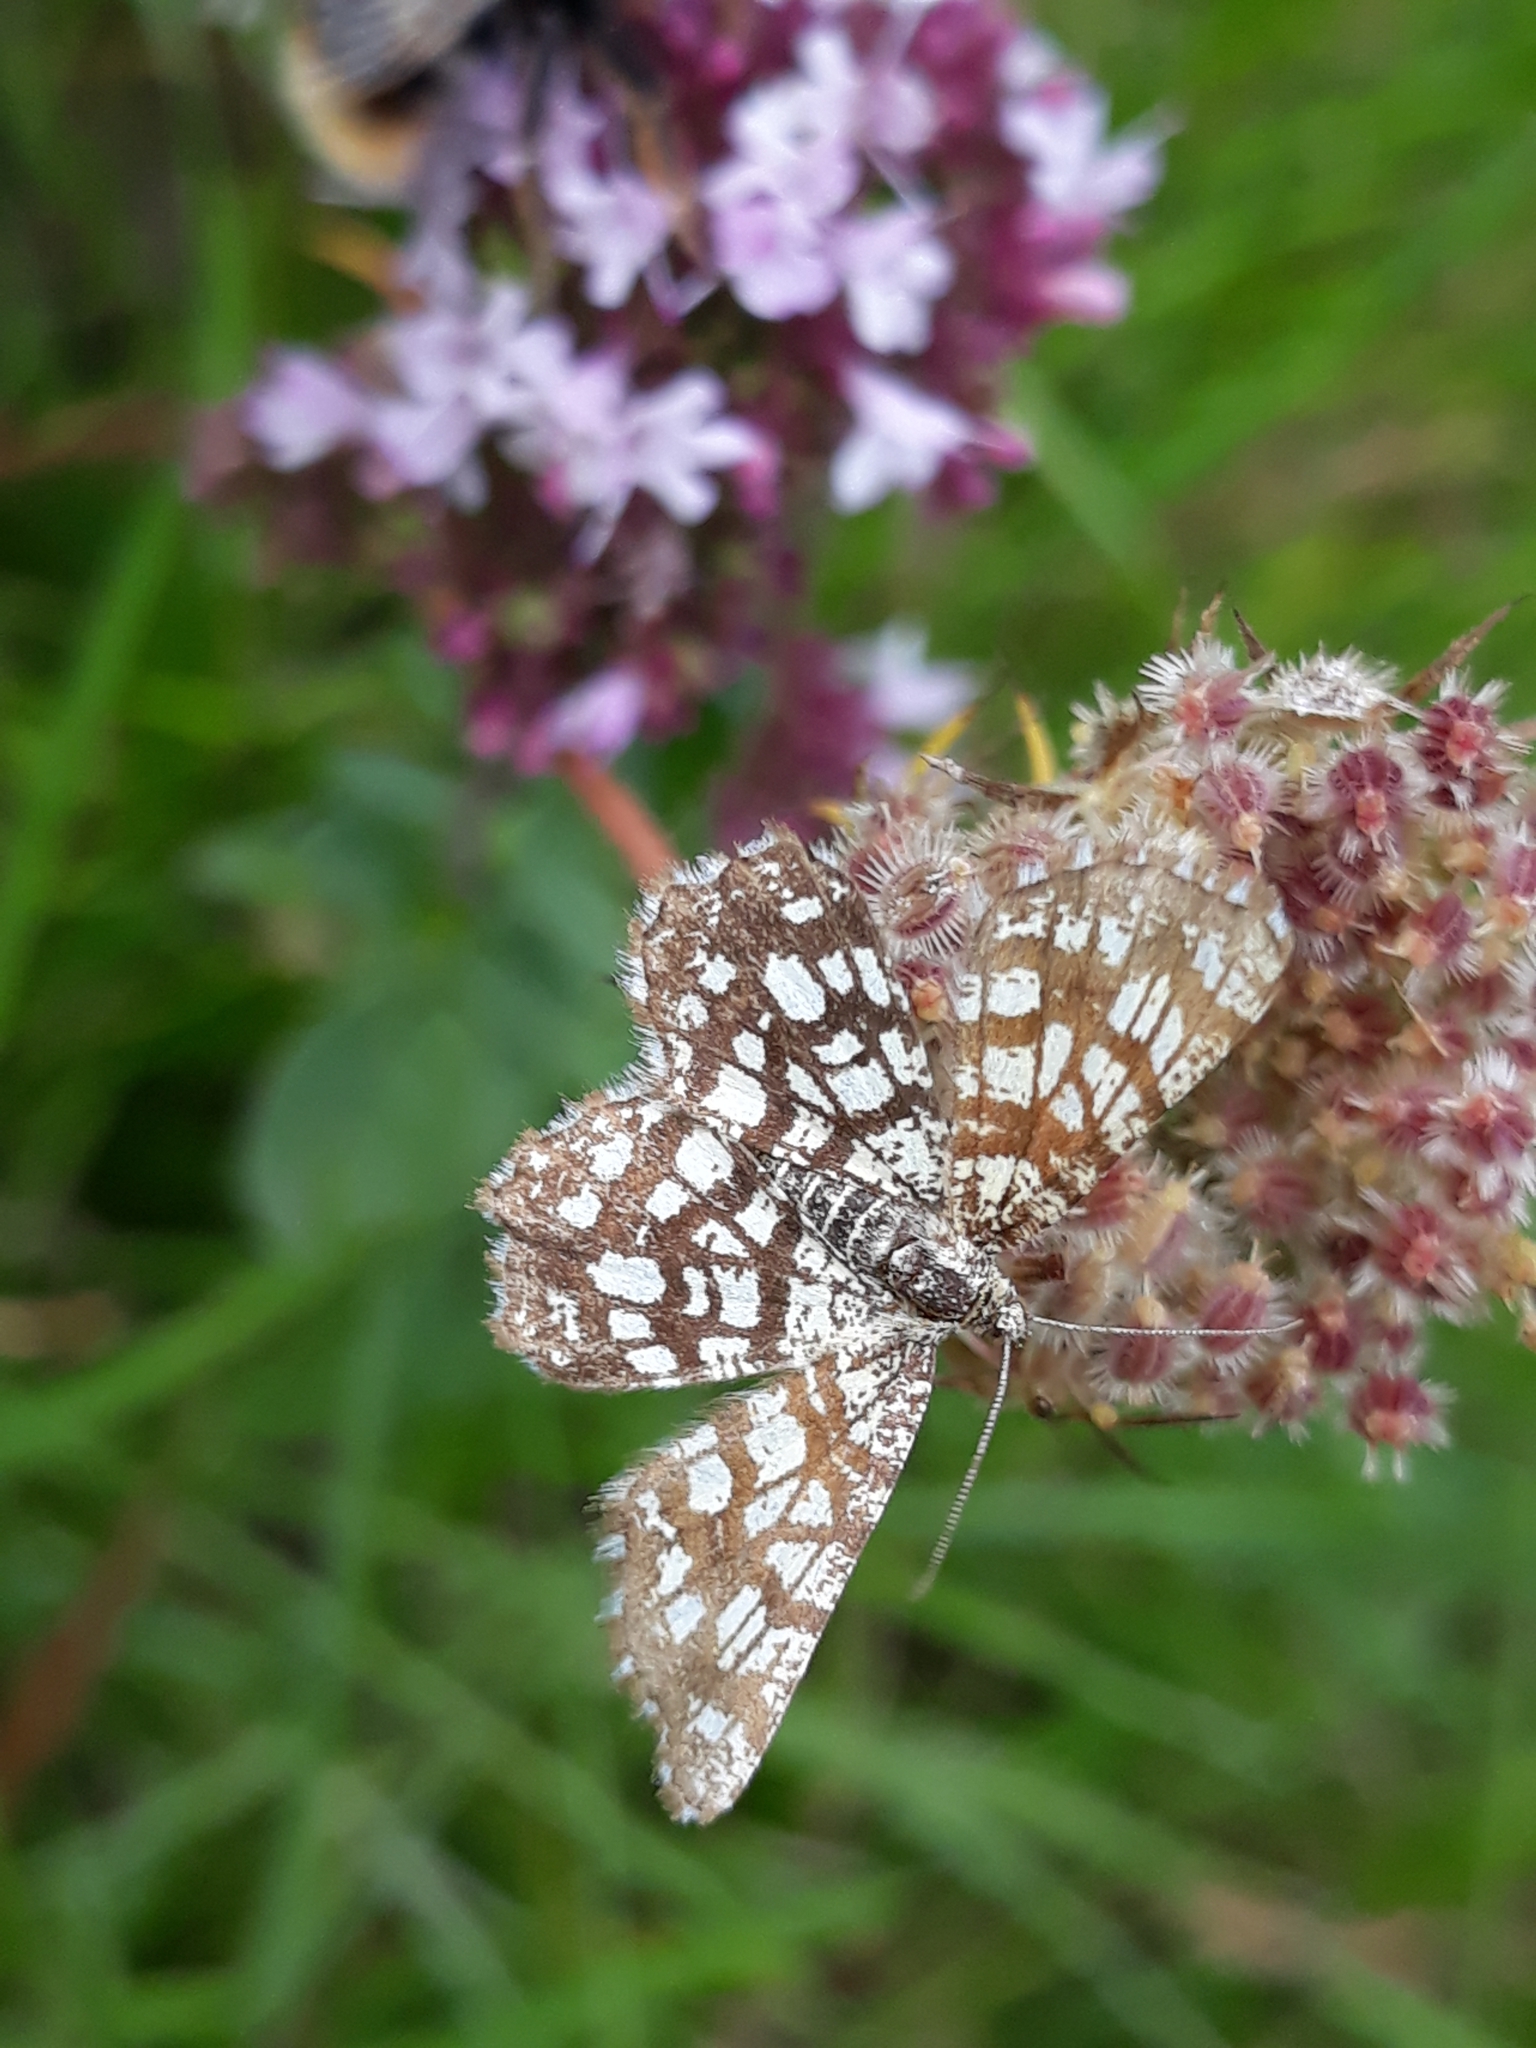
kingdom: Animalia
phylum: Arthropoda
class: Insecta
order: Lepidoptera
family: Geometridae
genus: Chiasmia
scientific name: Chiasmia clathrata
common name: Latticed heath
